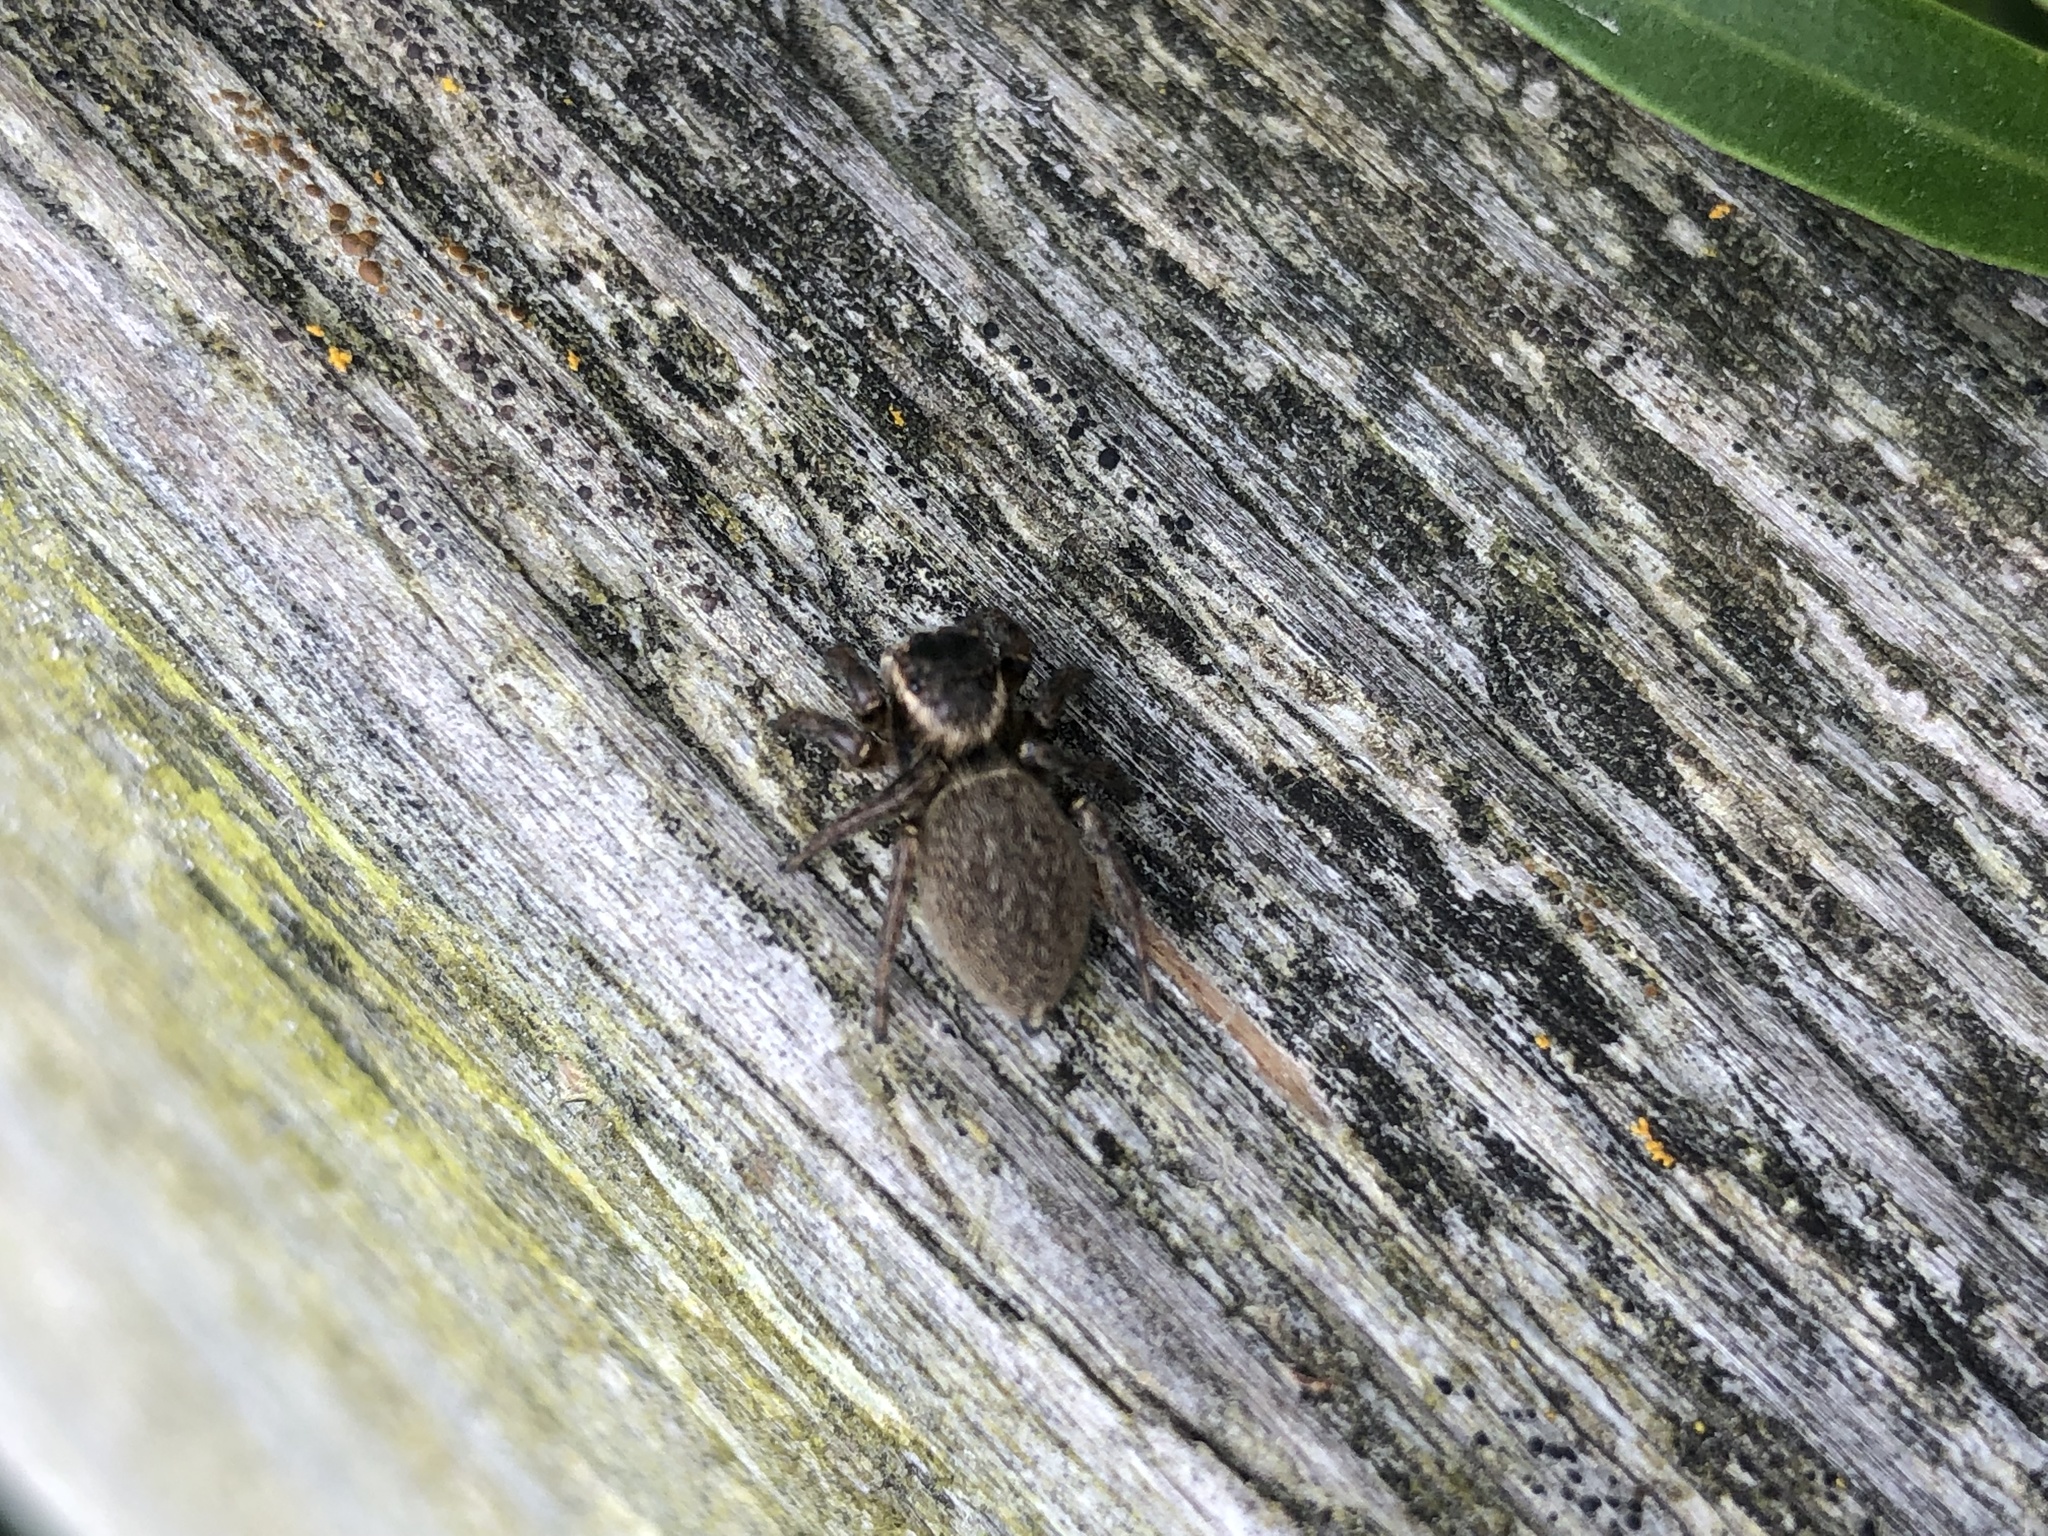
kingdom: Animalia
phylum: Arthropoda
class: Arachnida
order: Araneae
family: Salticidae
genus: Maratus
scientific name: Maratus griseus
